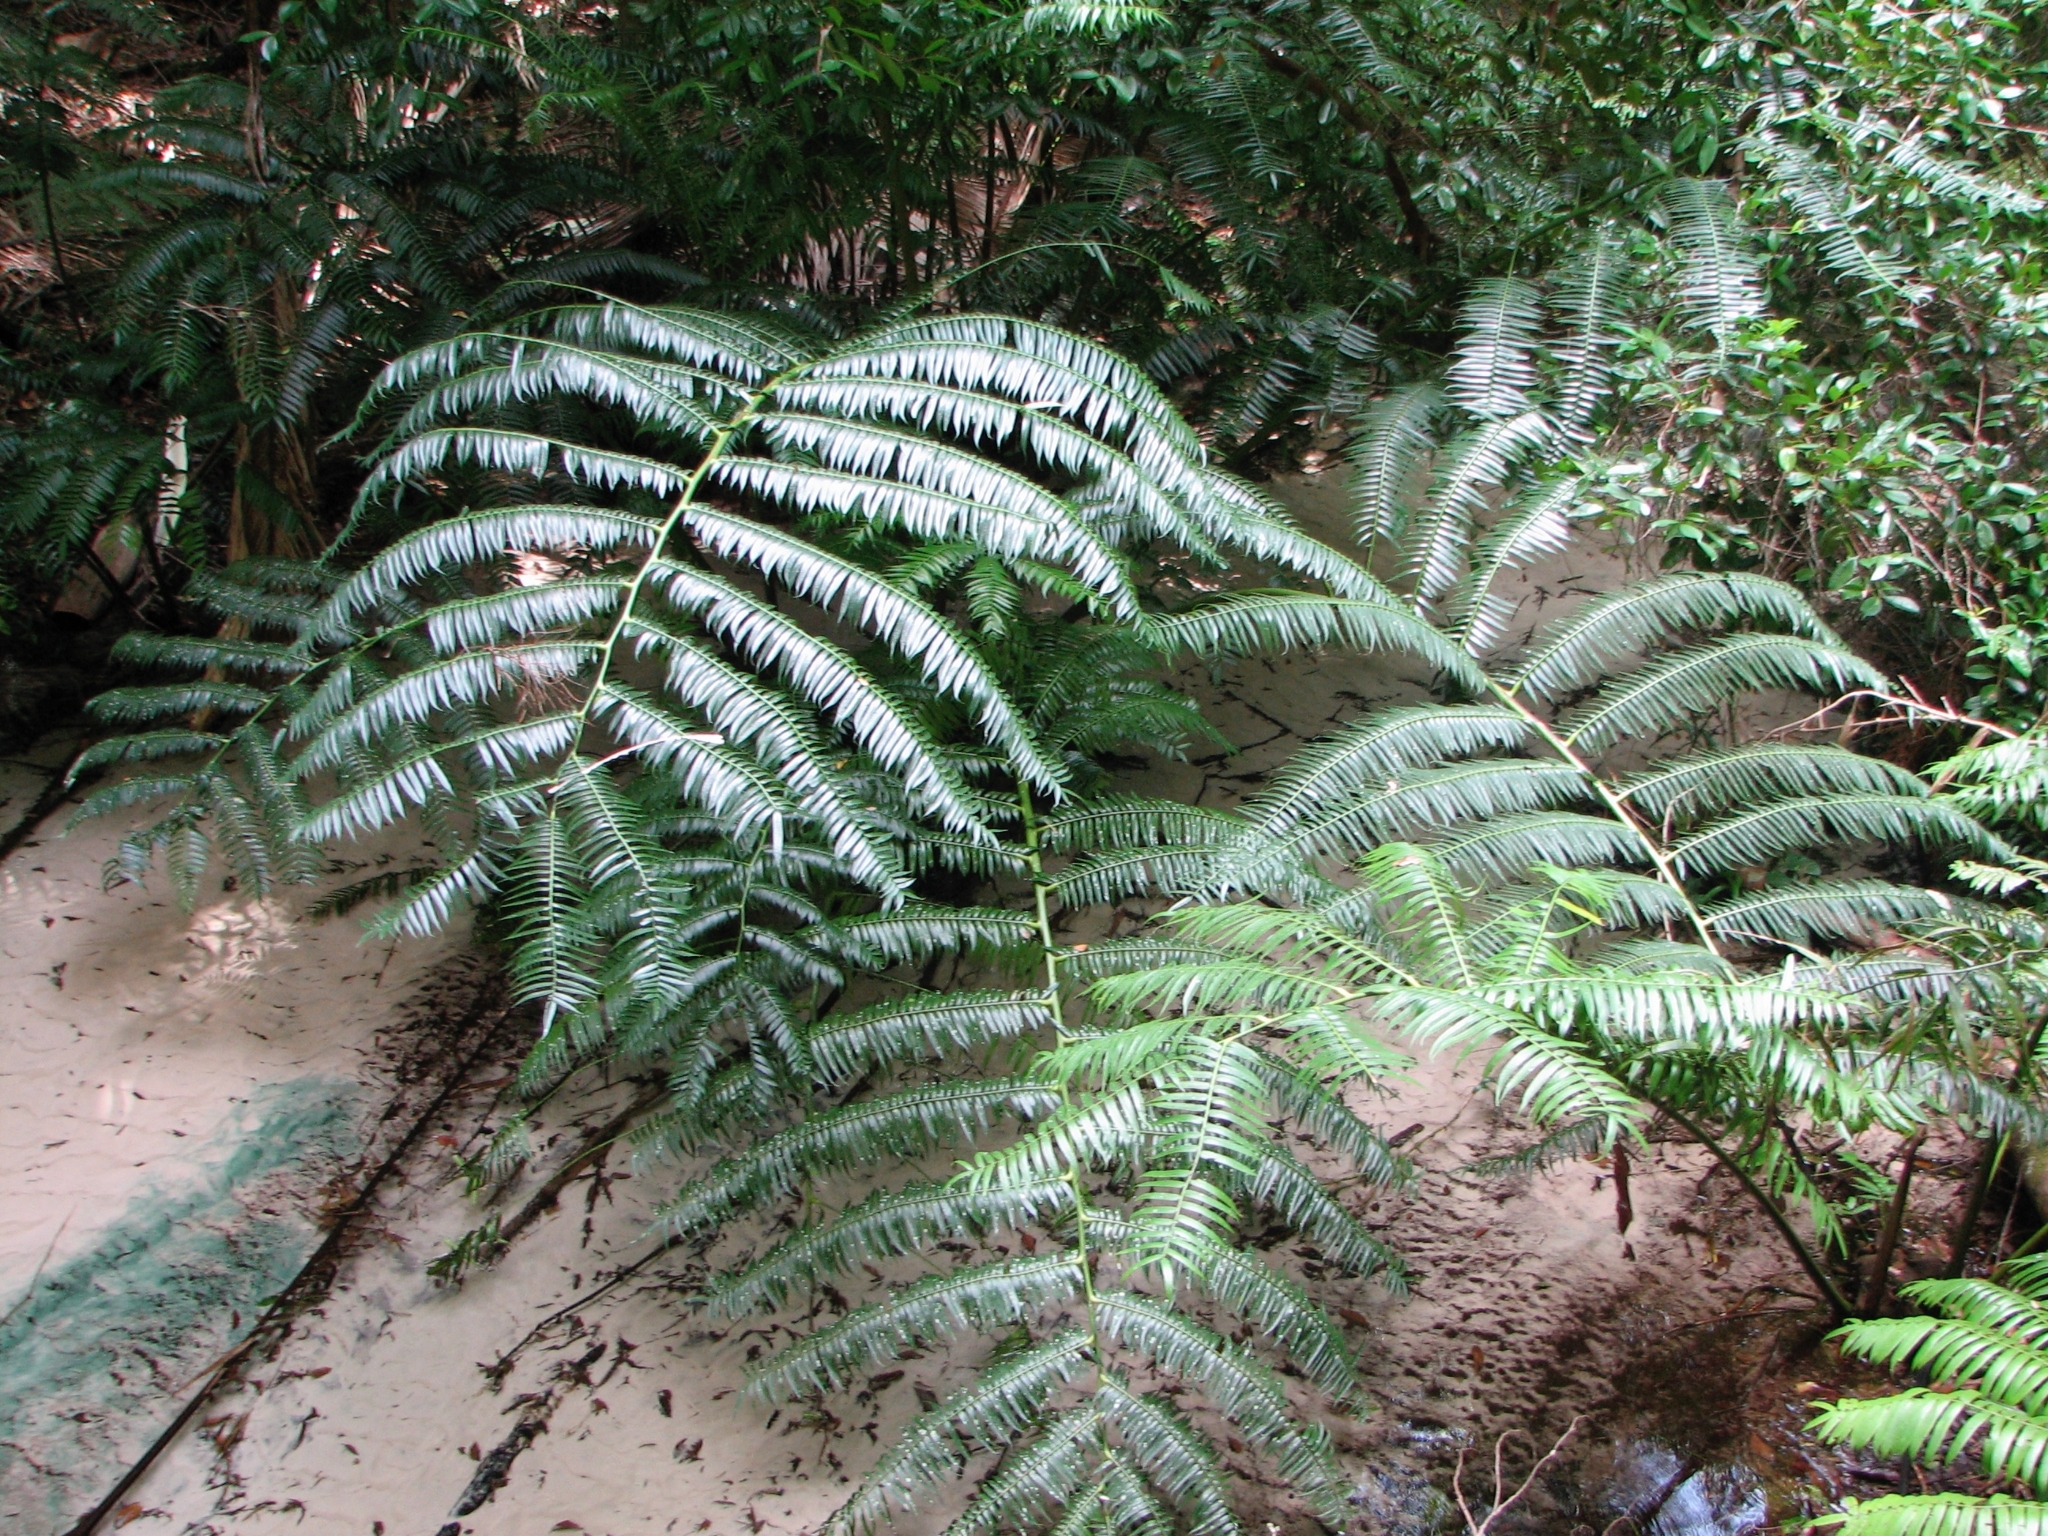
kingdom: Plantae
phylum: Tracheophyta
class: Polypodiopsida
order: Marattiales
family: Marattiaceae
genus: Angiopteris
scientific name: Angiopteris evecta
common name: Mule's-foot fern
